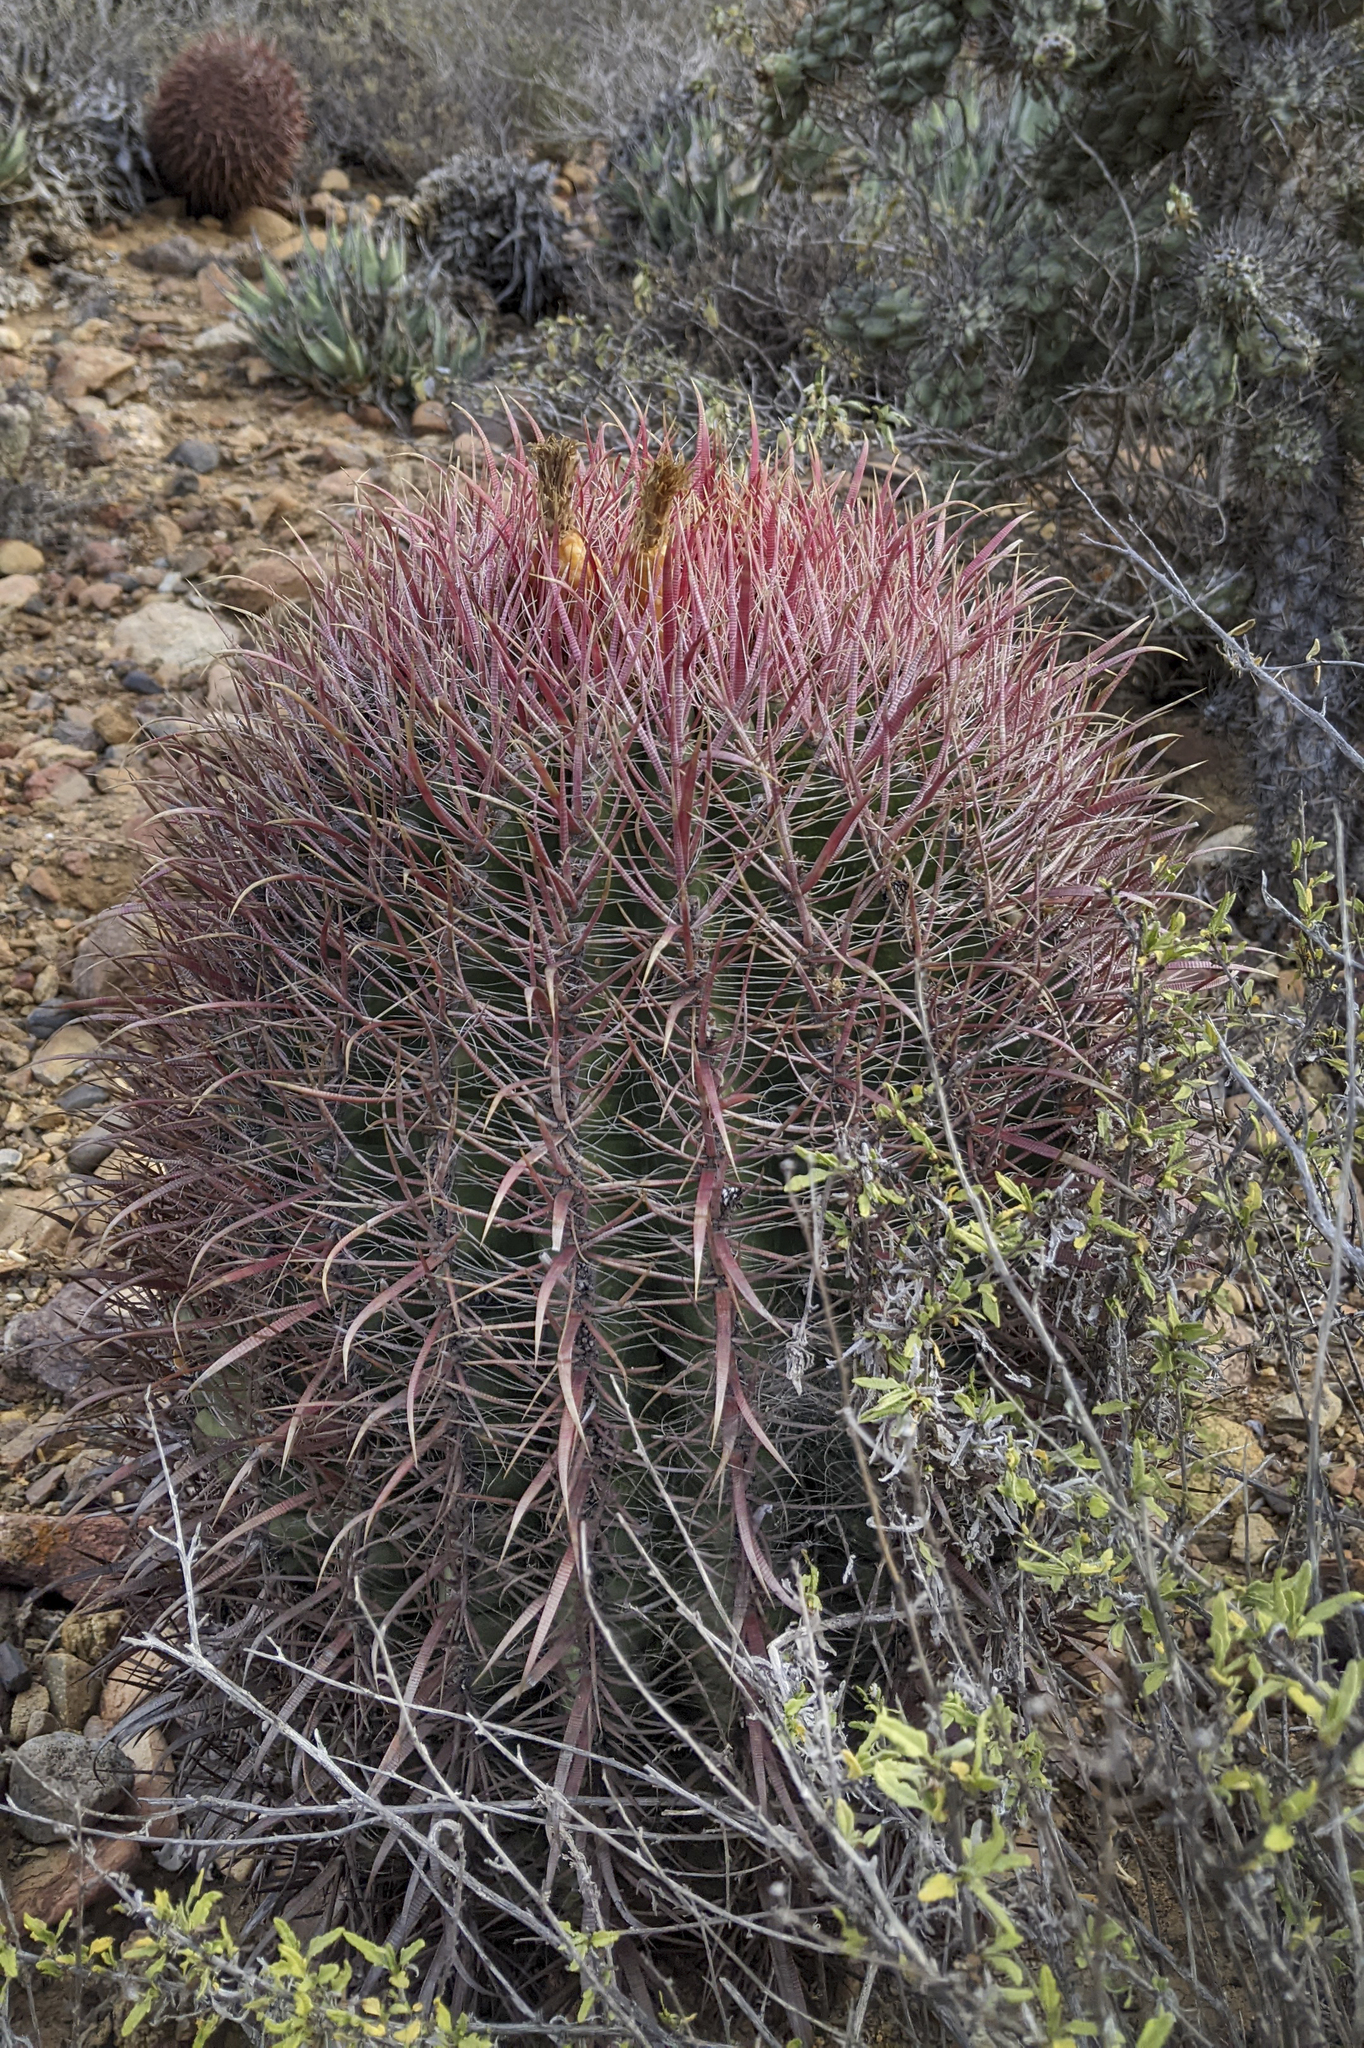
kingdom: Plantae
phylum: Tracheophyta
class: Magnoliopsida
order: Caryophyllales
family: Cactaceae
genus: Ferocactus
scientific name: Ferocactus gracilis
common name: Fire barrel cactus
